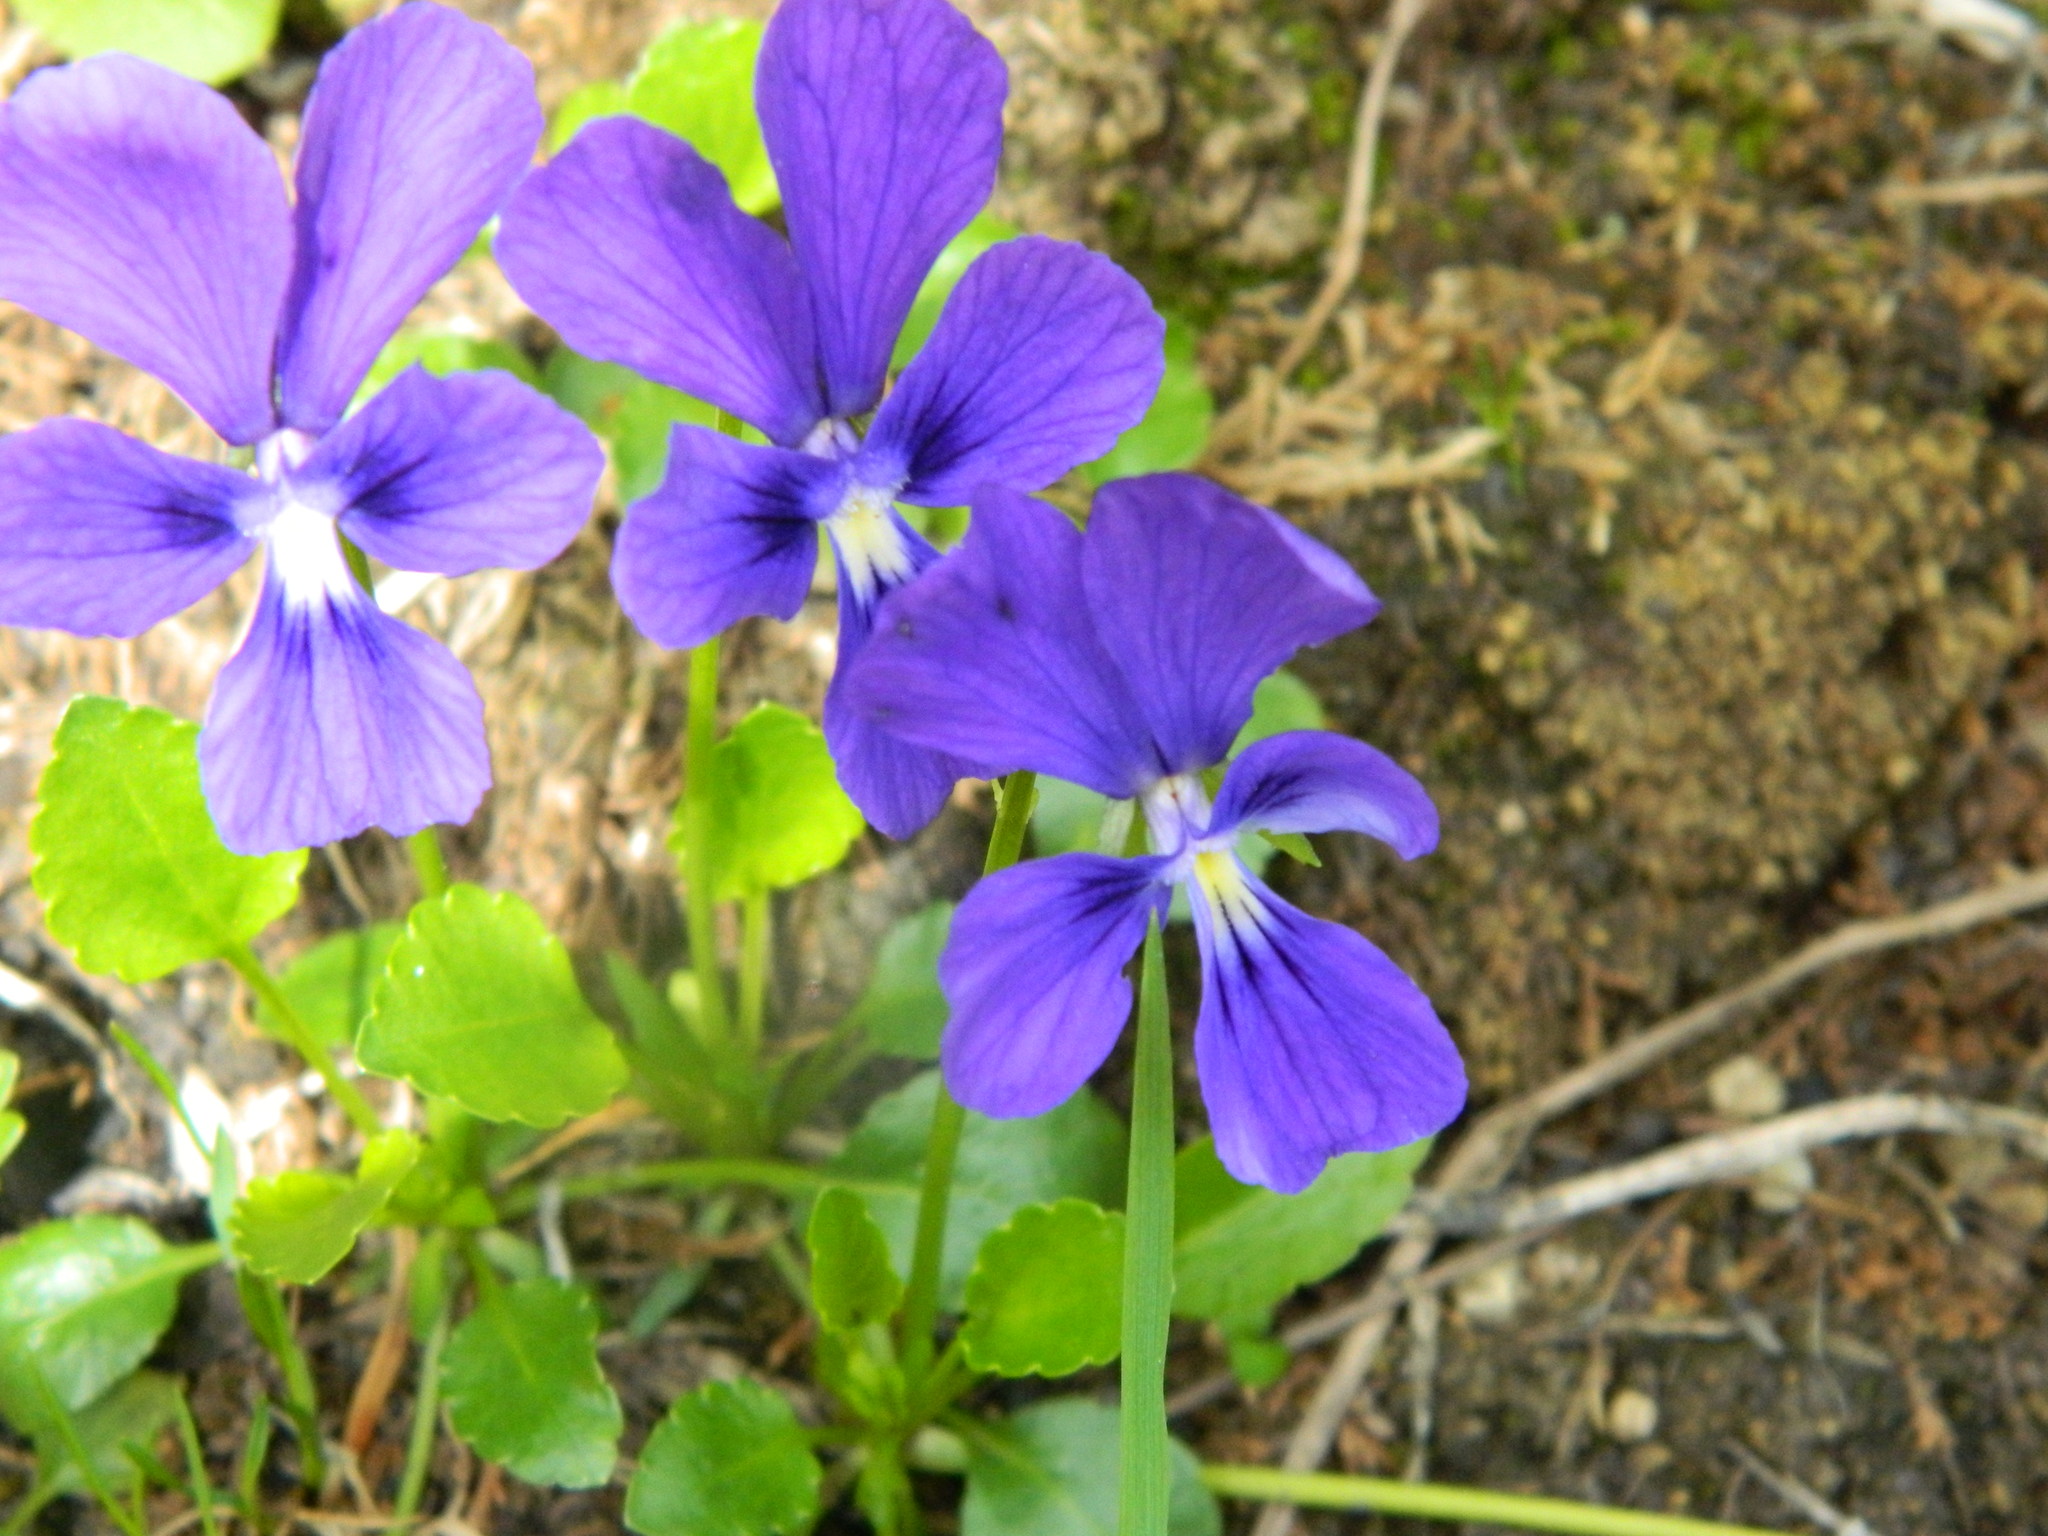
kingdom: Plantae
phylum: Tracheophyta
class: Magnoliopsida
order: Malpighiales
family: Violaceae
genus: Viola
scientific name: Viola altaica
